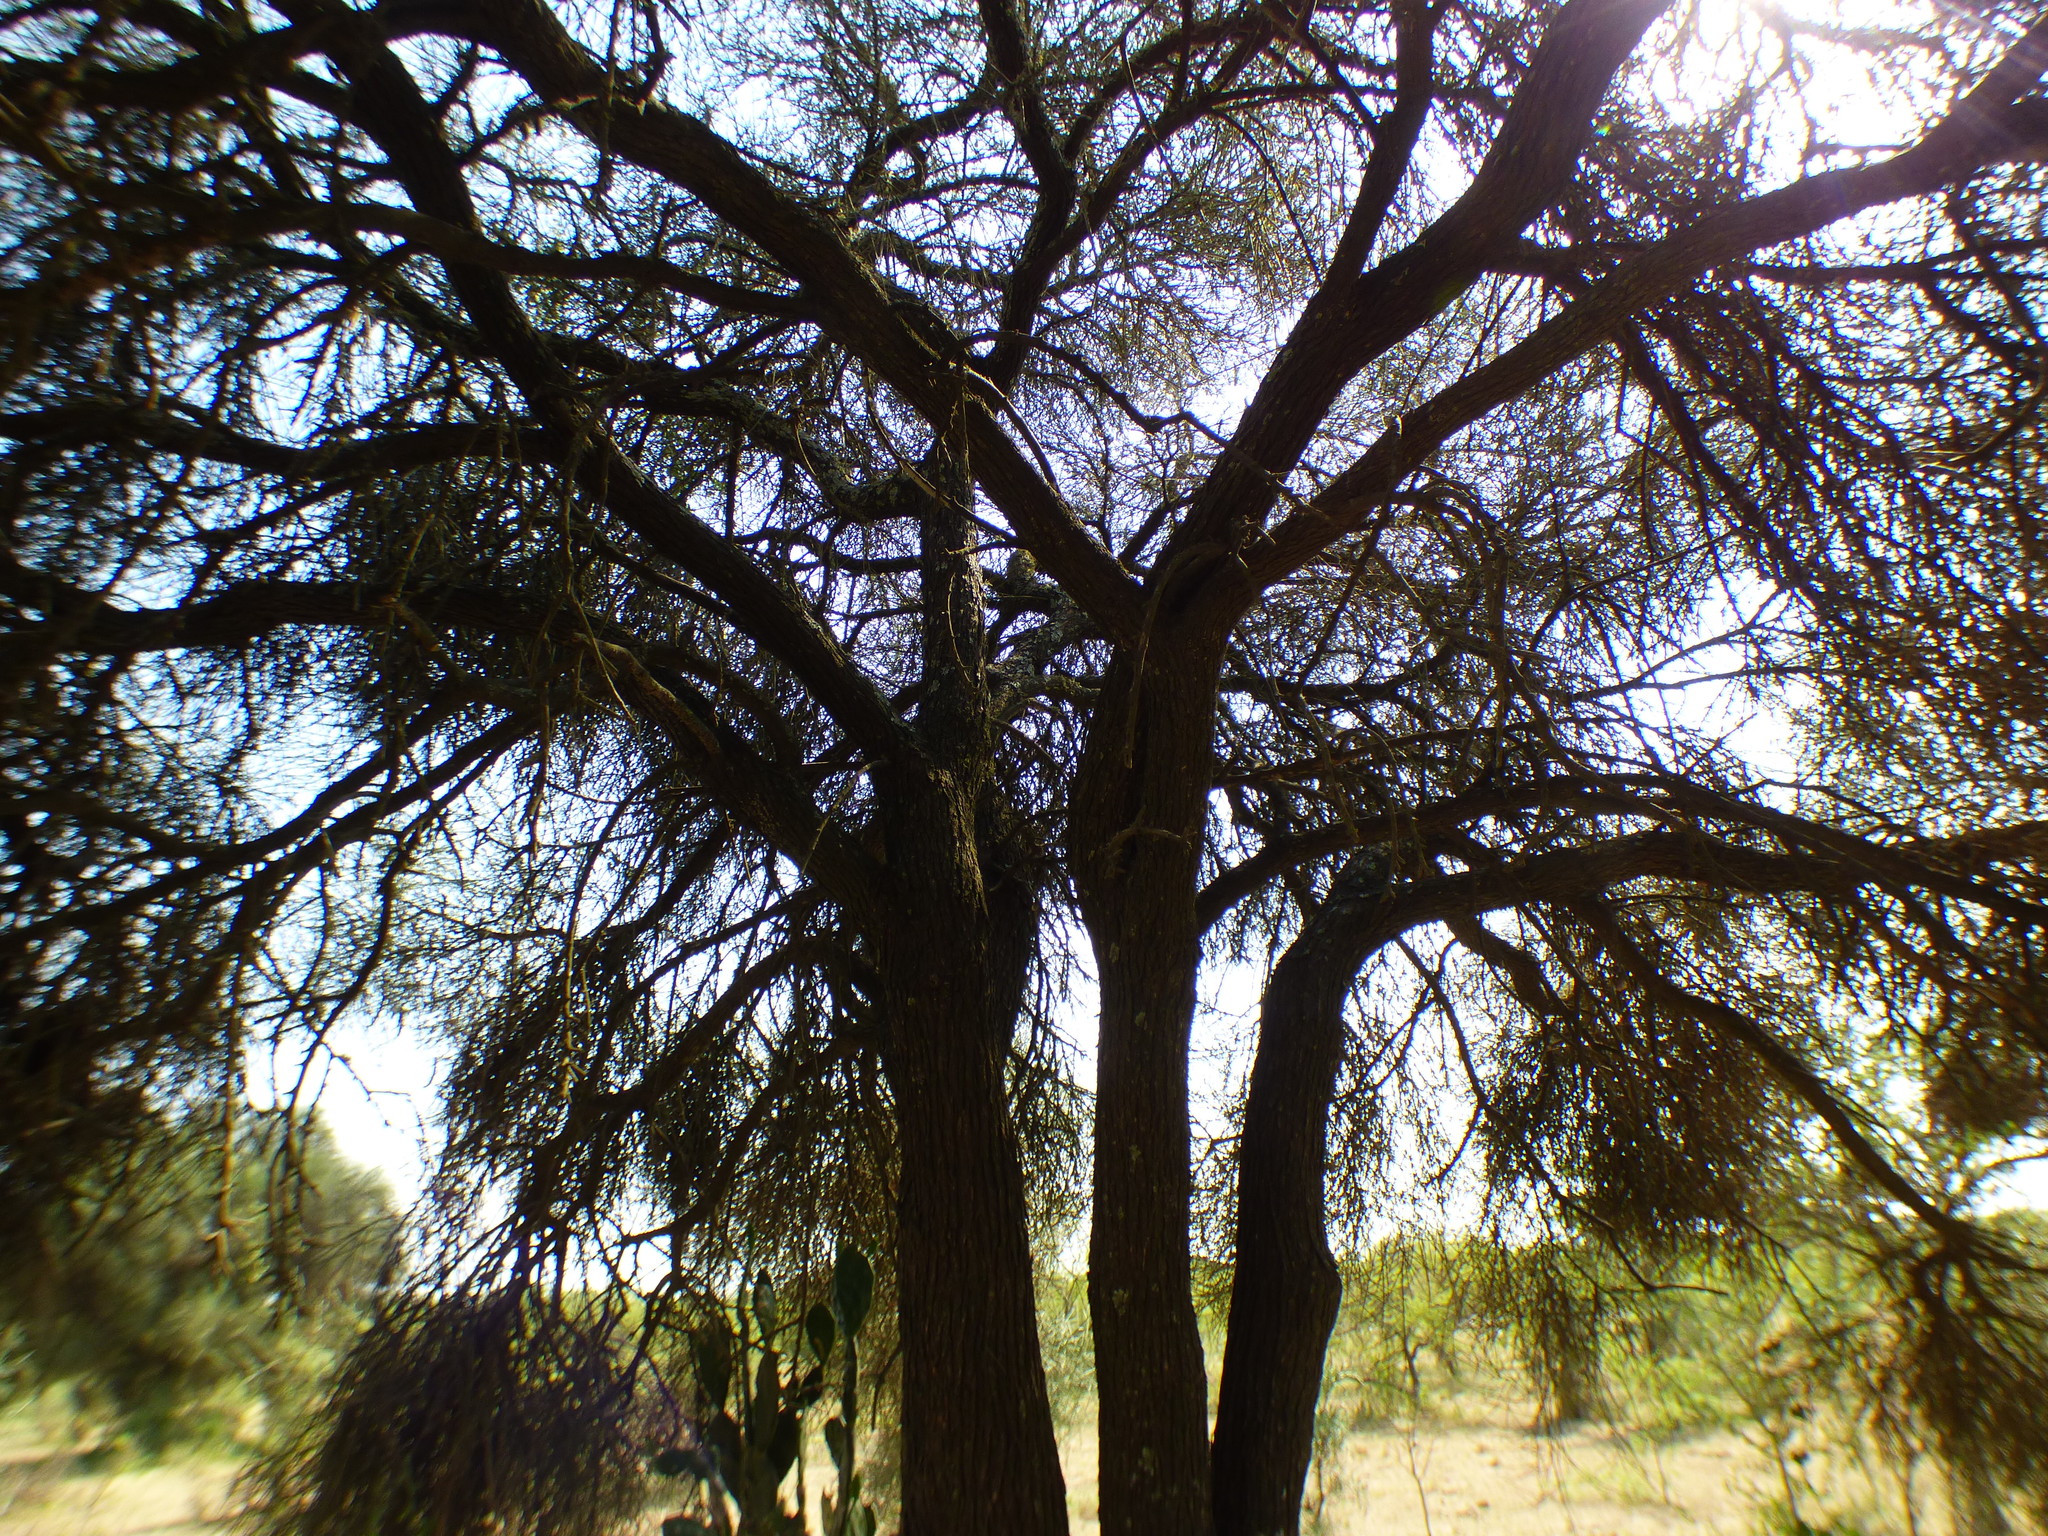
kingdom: Plantae
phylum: Tracheophyta
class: Magnoliopsida
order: Fabales
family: Fabaceae
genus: Prosopis
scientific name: Prosopis kuntzei
